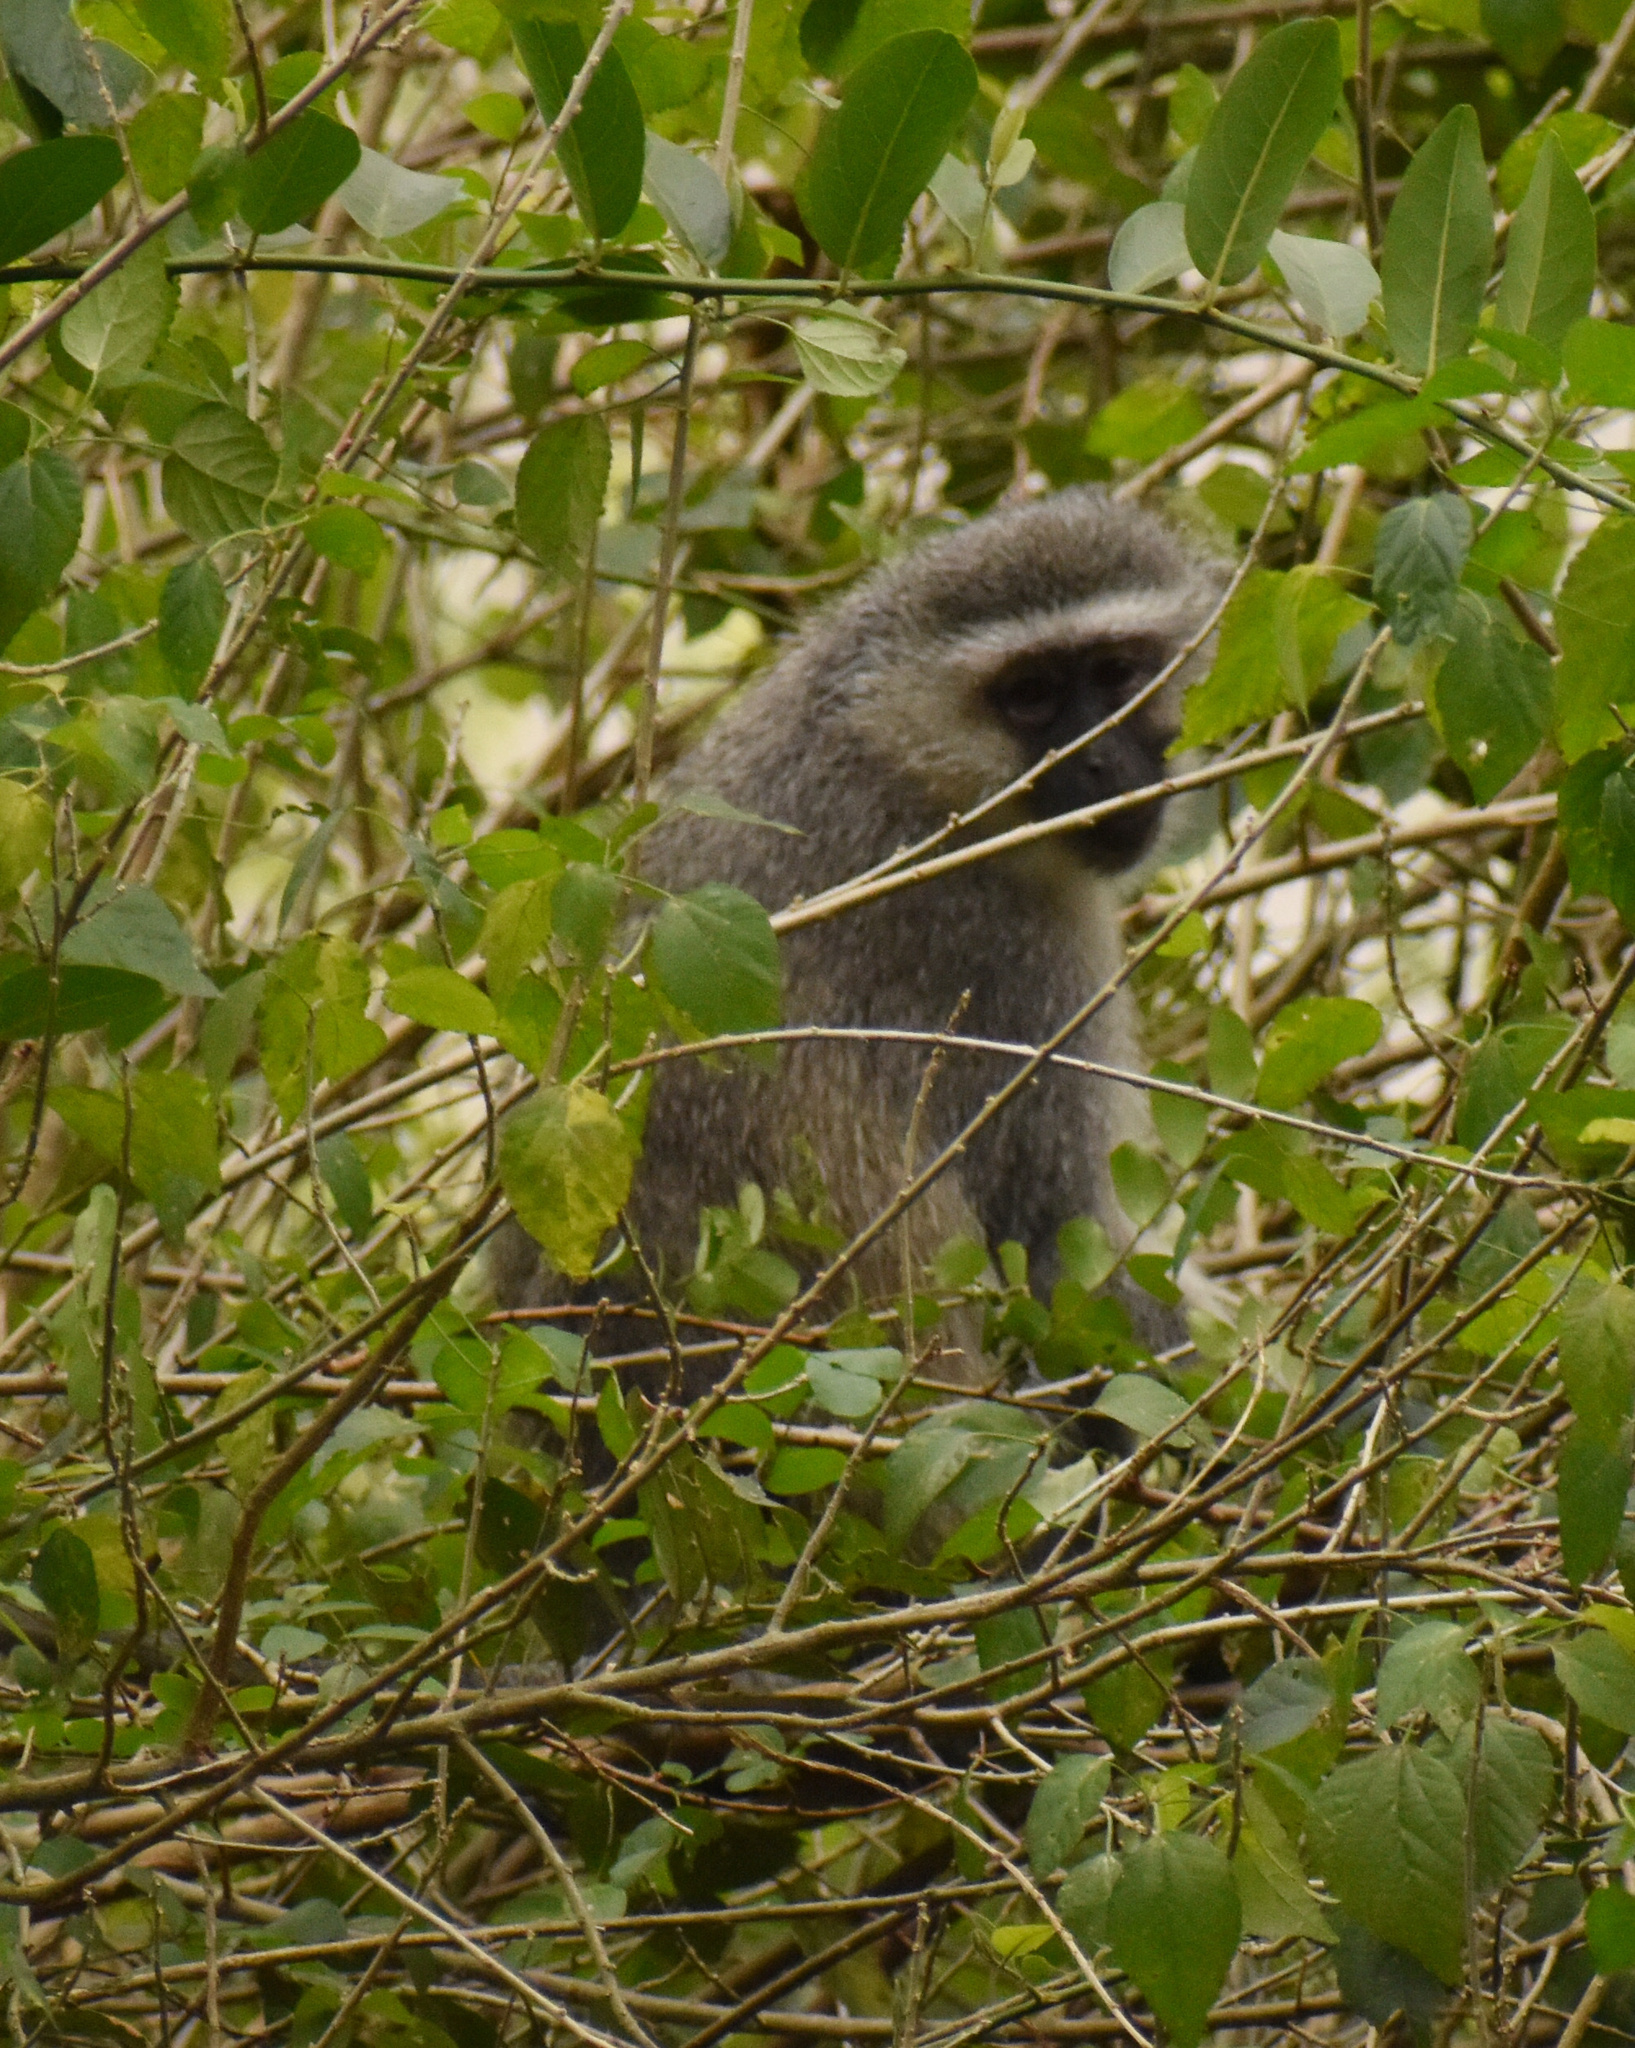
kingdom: Animalia
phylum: Chordata
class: Mammalia
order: Primates
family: Cercopithecidae
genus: Chlorocebus
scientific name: Chlorocebus pygerythrus
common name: Vervet monkey
